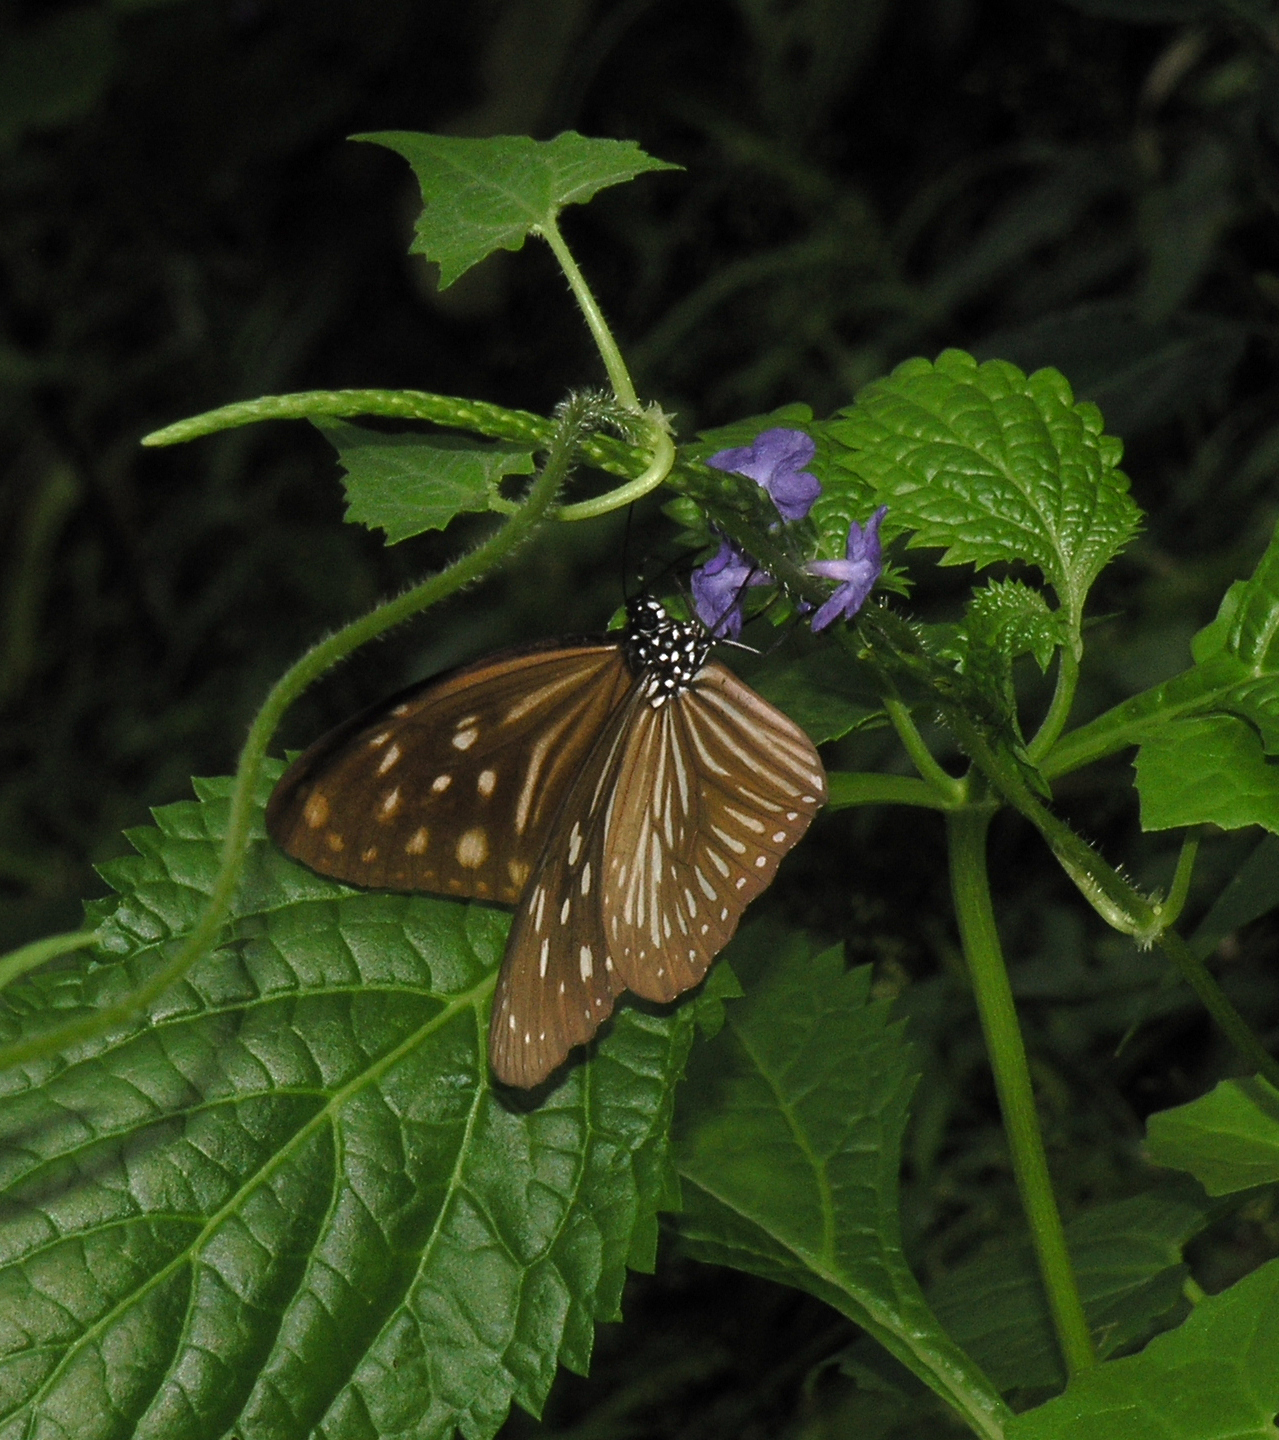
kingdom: Animalia
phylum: Arthropoda
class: Insecta
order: Lepidoptera
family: Nymphalidae
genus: Euploea
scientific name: Euploea mulciber
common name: Striped blue crow butterfly
